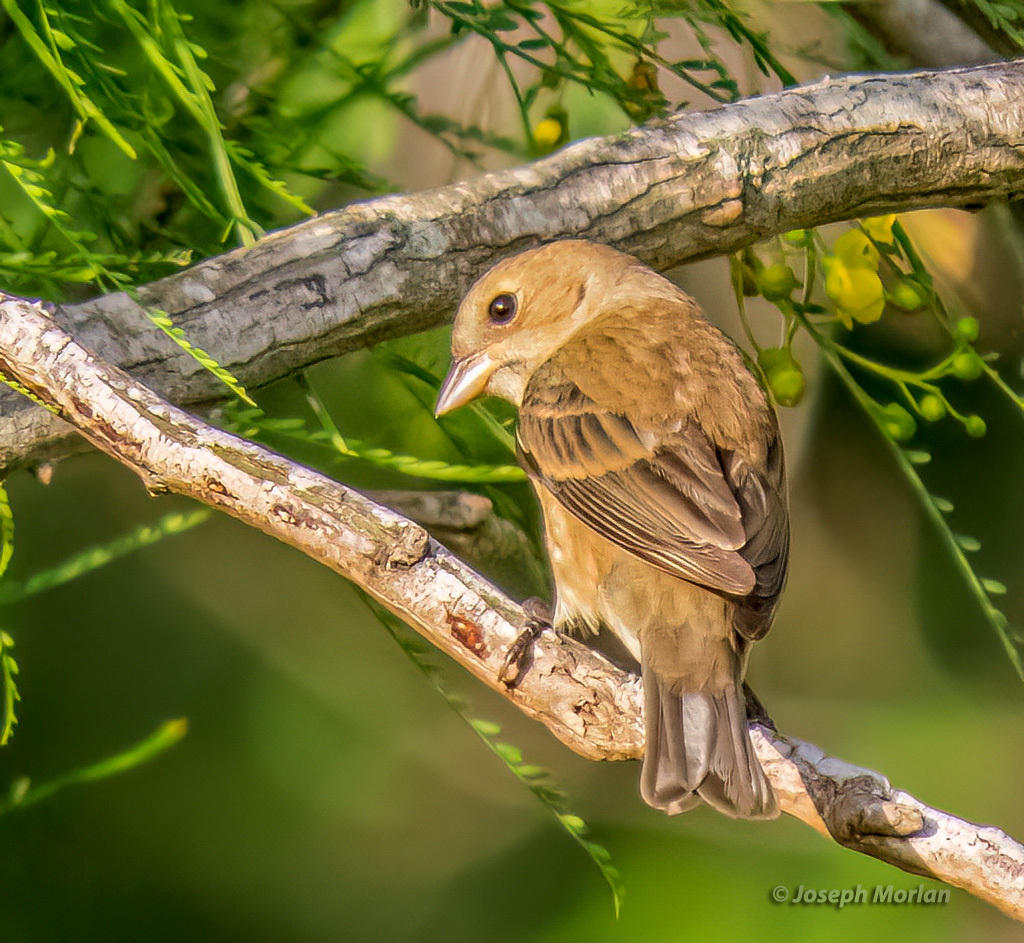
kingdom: Animalia
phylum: Chordata
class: Aves
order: Passeriformes
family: Cardinalidae
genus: Passerina
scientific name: Passerina cyanea
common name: Indigo bunting
